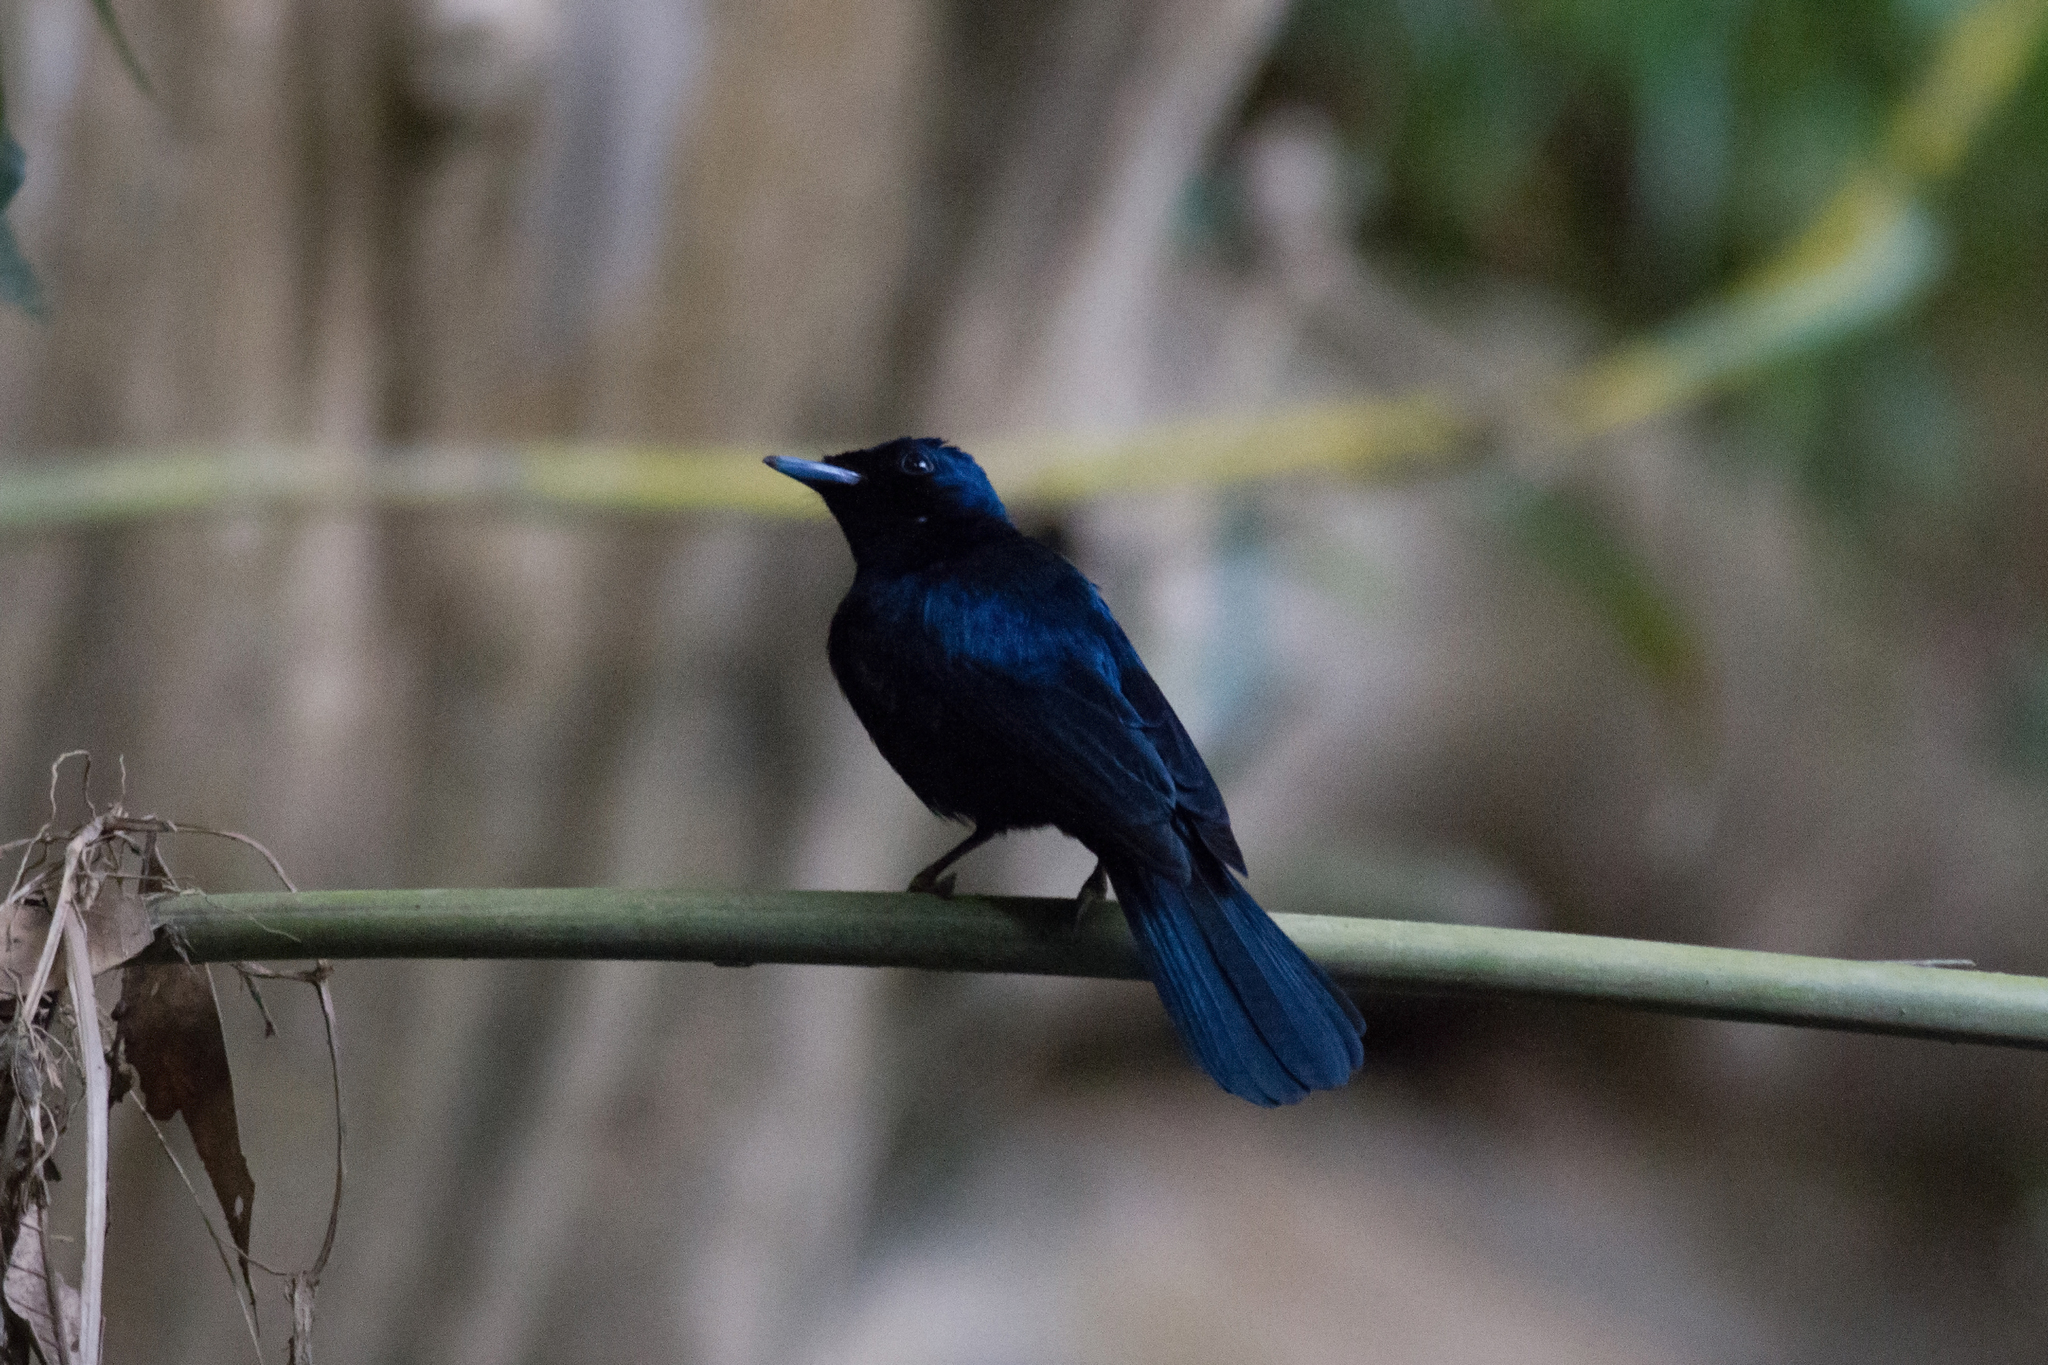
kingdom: Animalia
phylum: Chordata
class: Aves
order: Passeriformes
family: Monarchidae
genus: Myiagra
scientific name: Myiagra alecto
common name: Shining flycatcher
